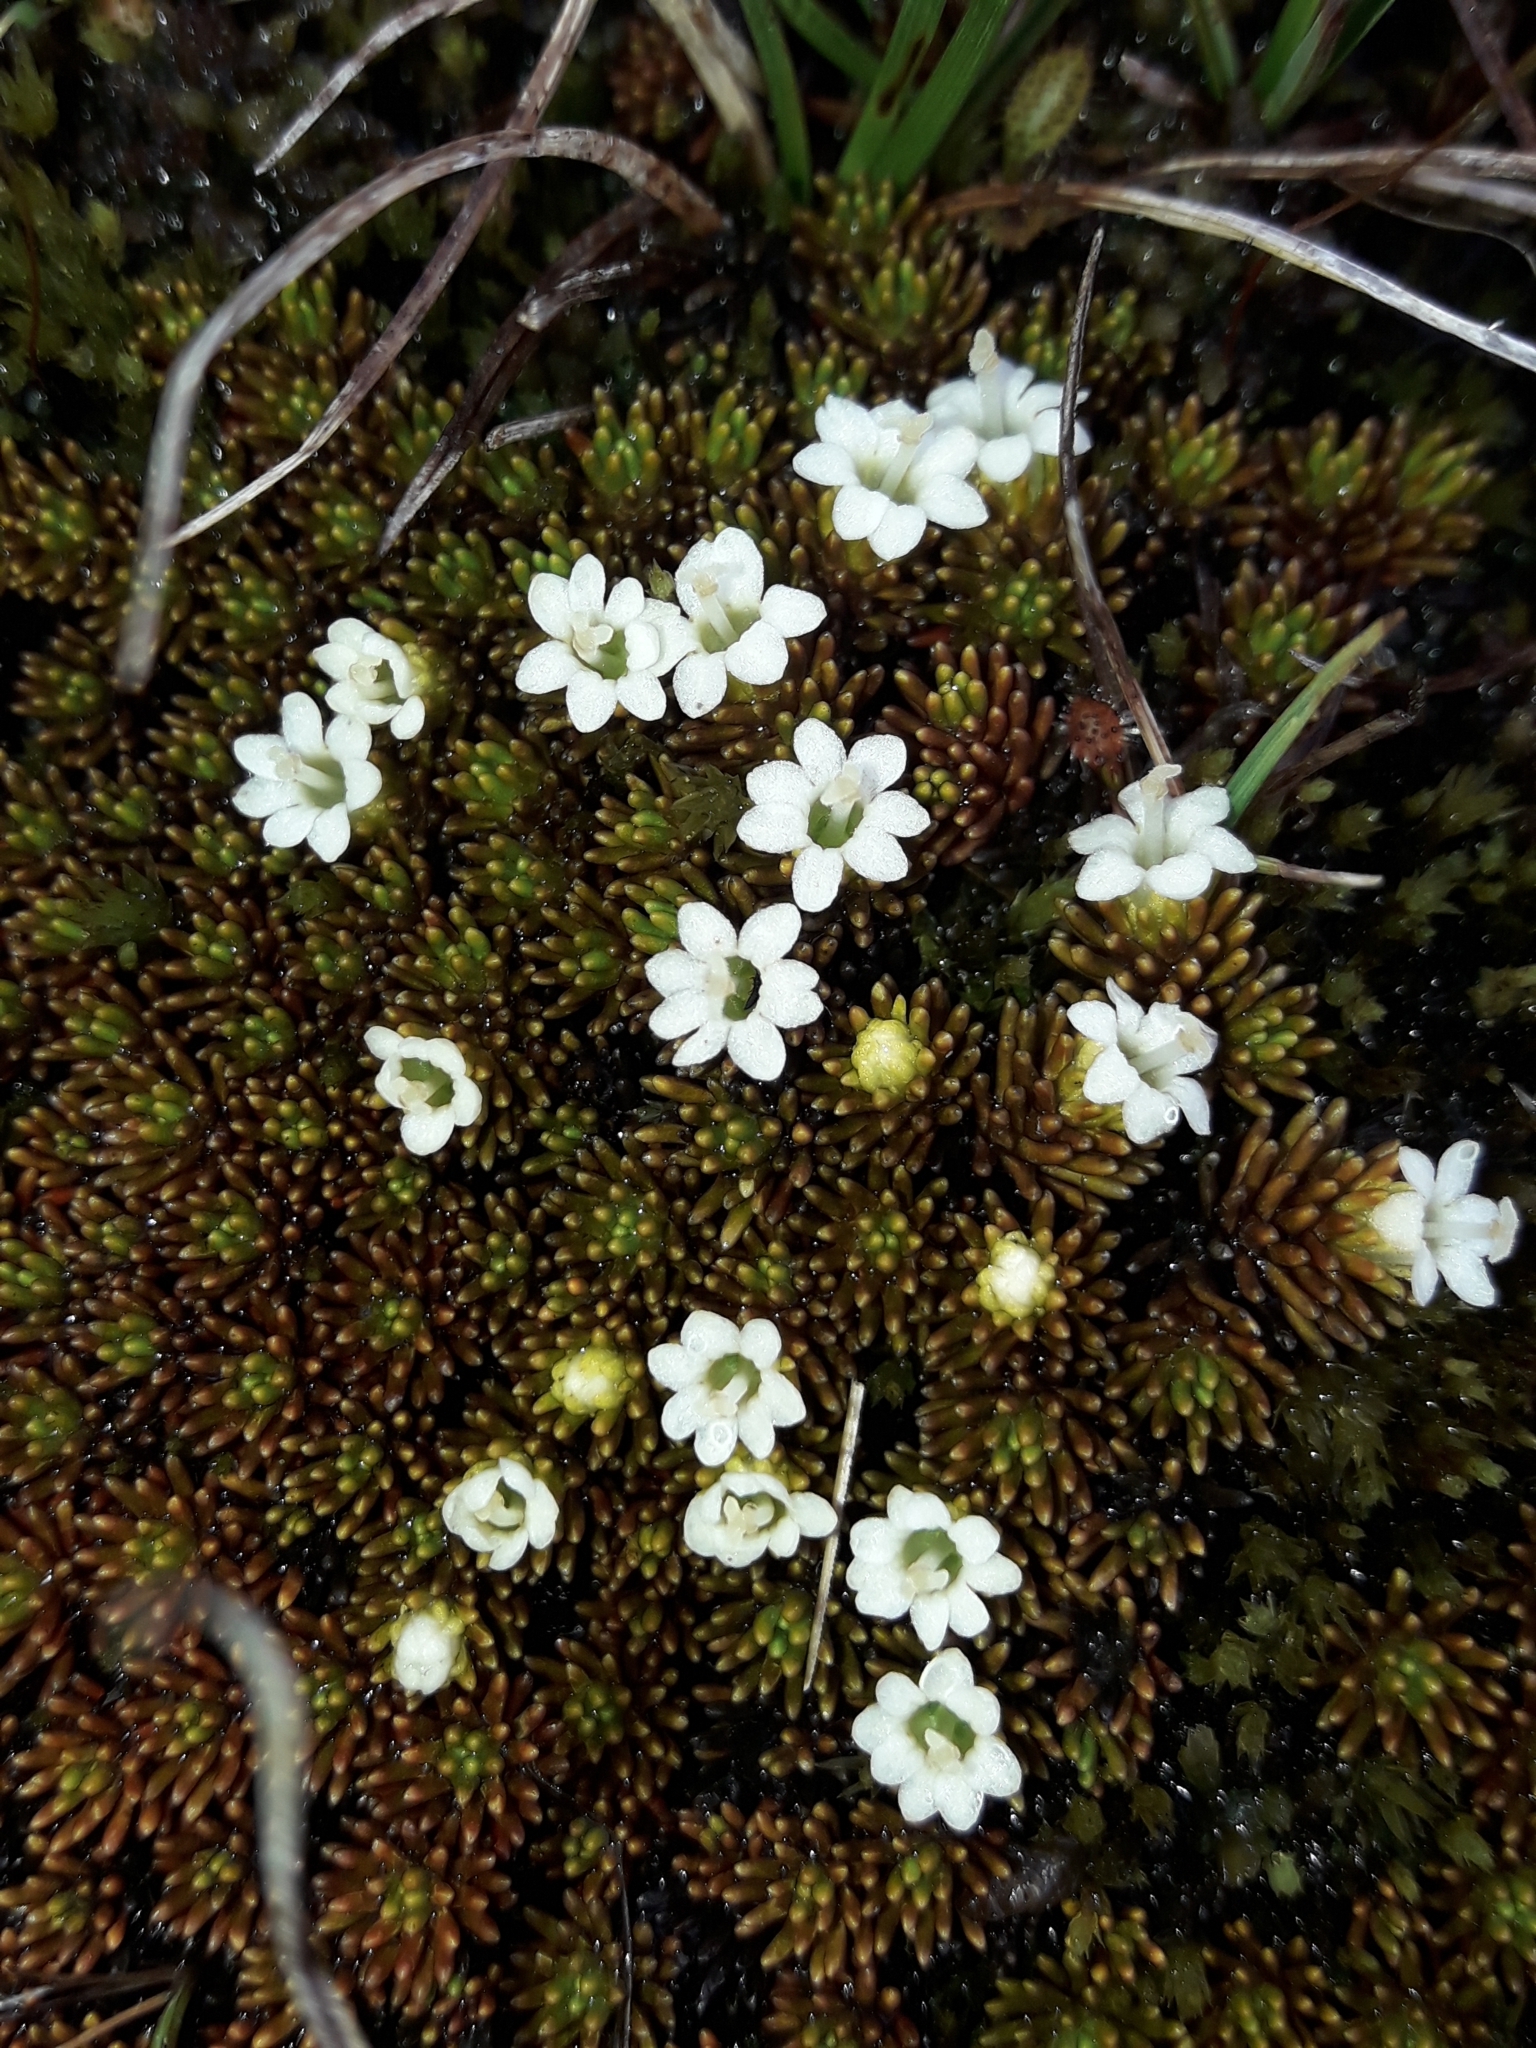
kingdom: Plantae
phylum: Tracheophyta
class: Magnoliopsida
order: Asterales
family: Stylidiaceae
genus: Phyllachne
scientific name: Phyllachne colensoi
